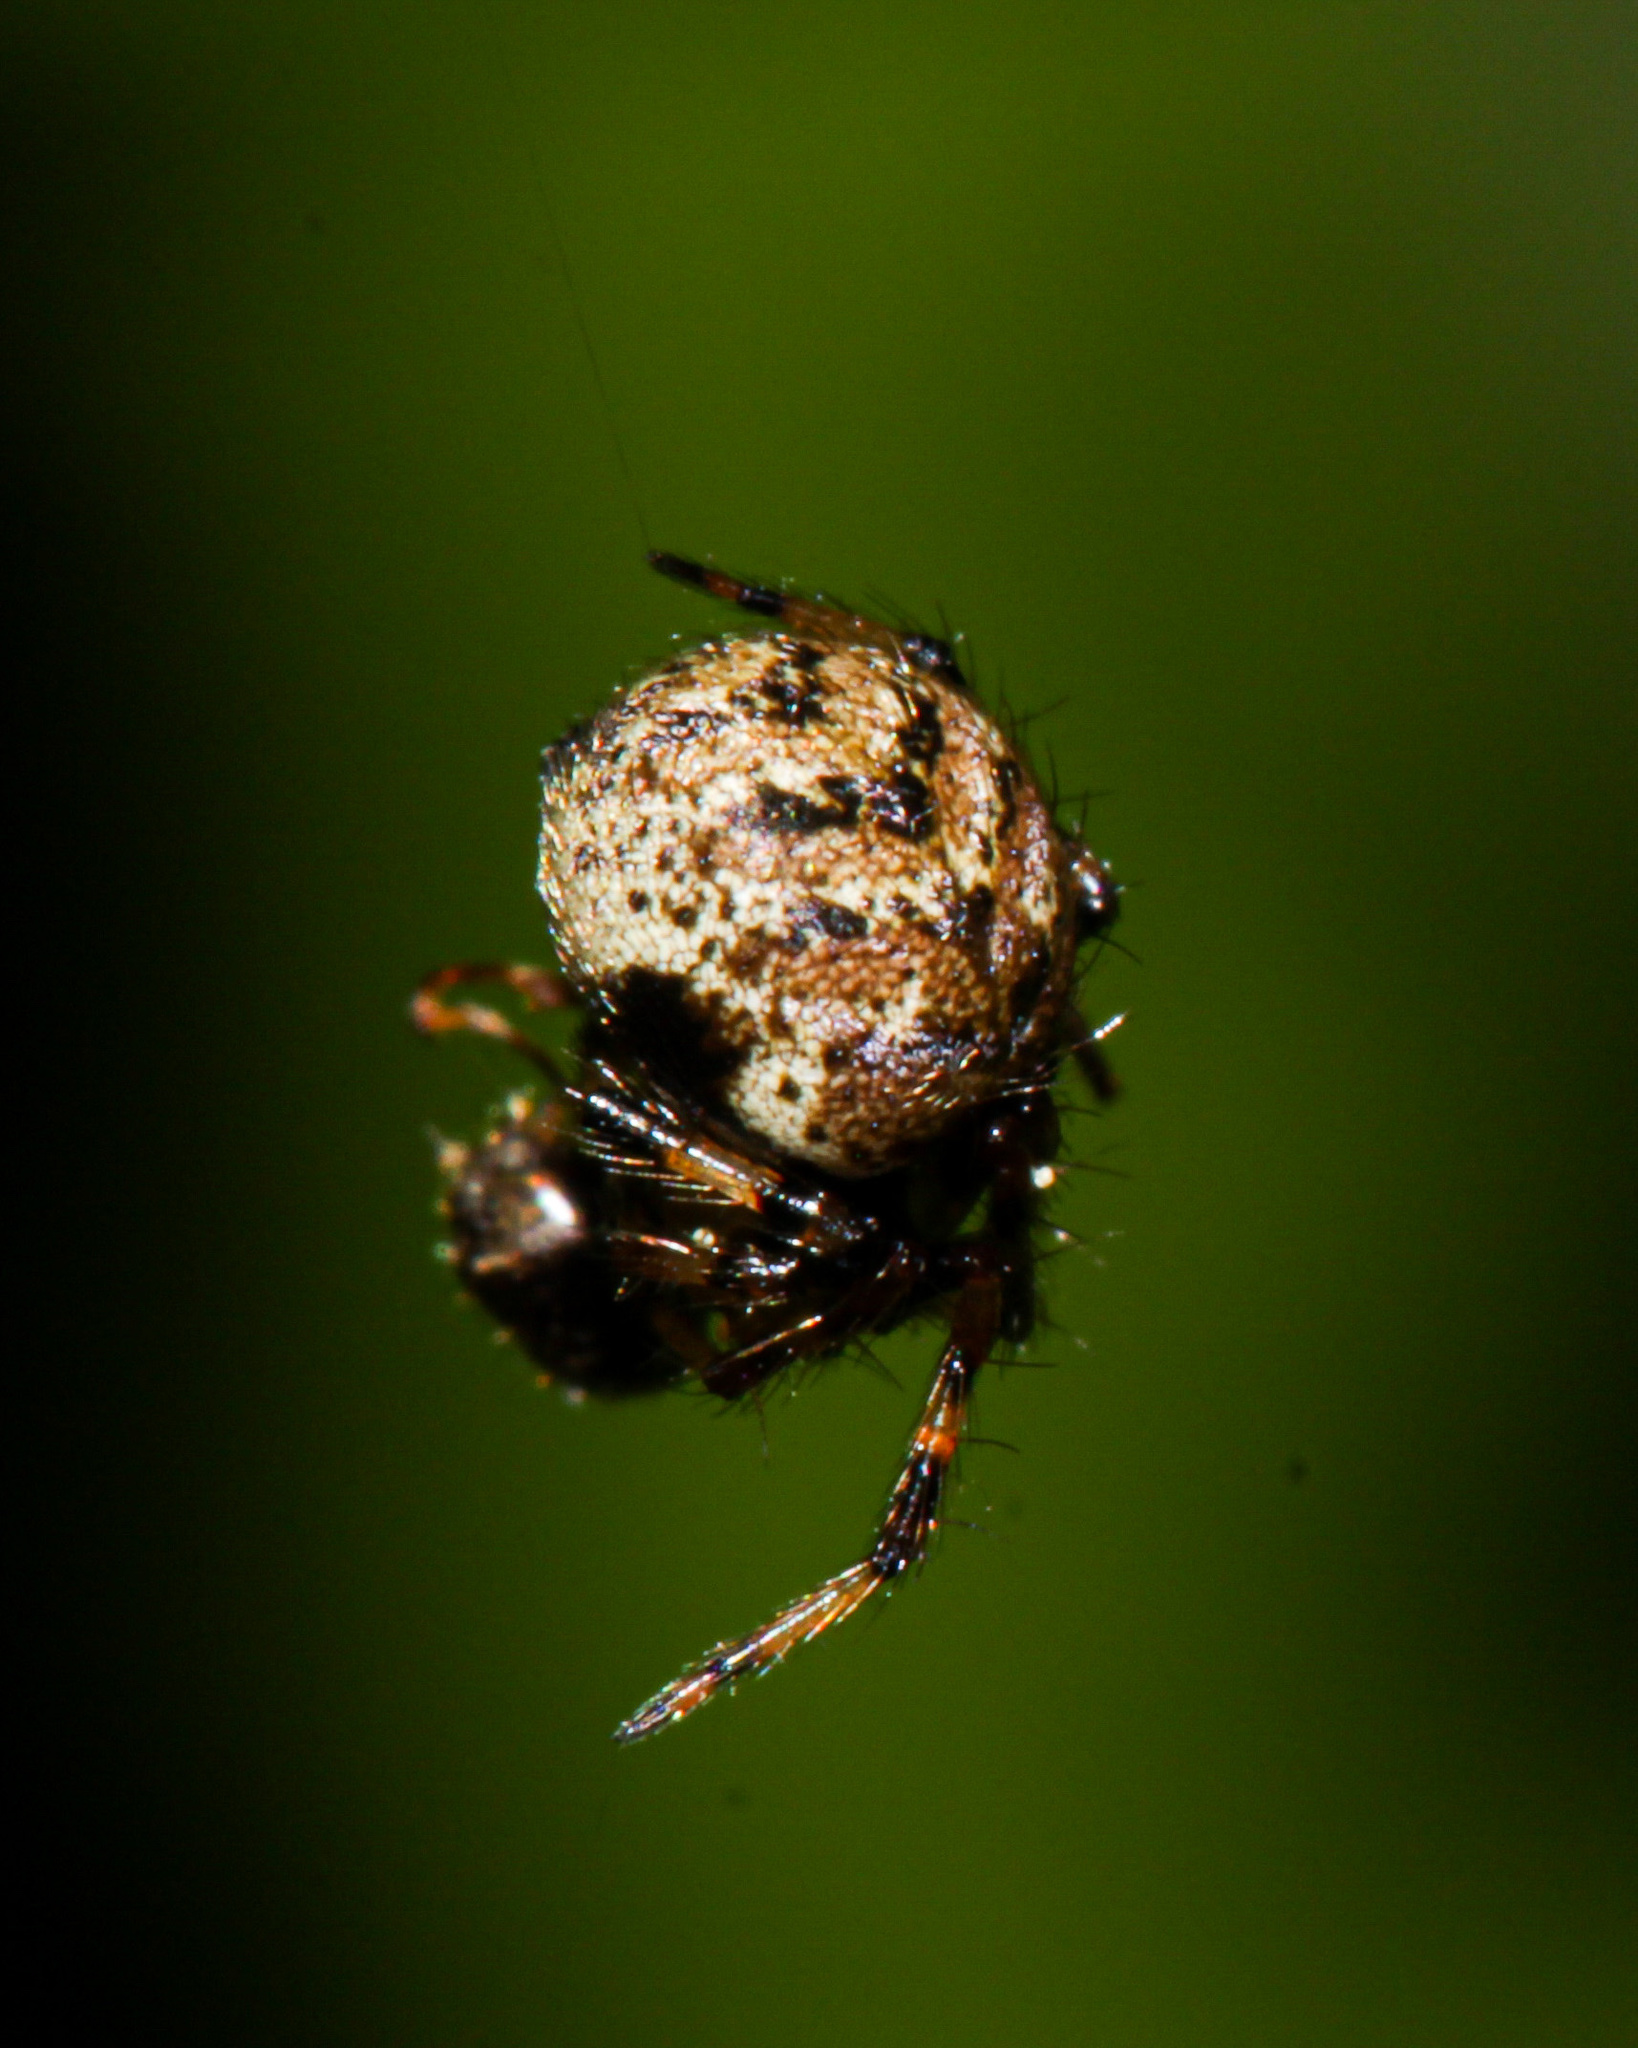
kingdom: Animalia
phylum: Arthropoda
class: Arachnida
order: Araneae
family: Theridiidae
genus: Dipoena
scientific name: Dipoena melanogaster
